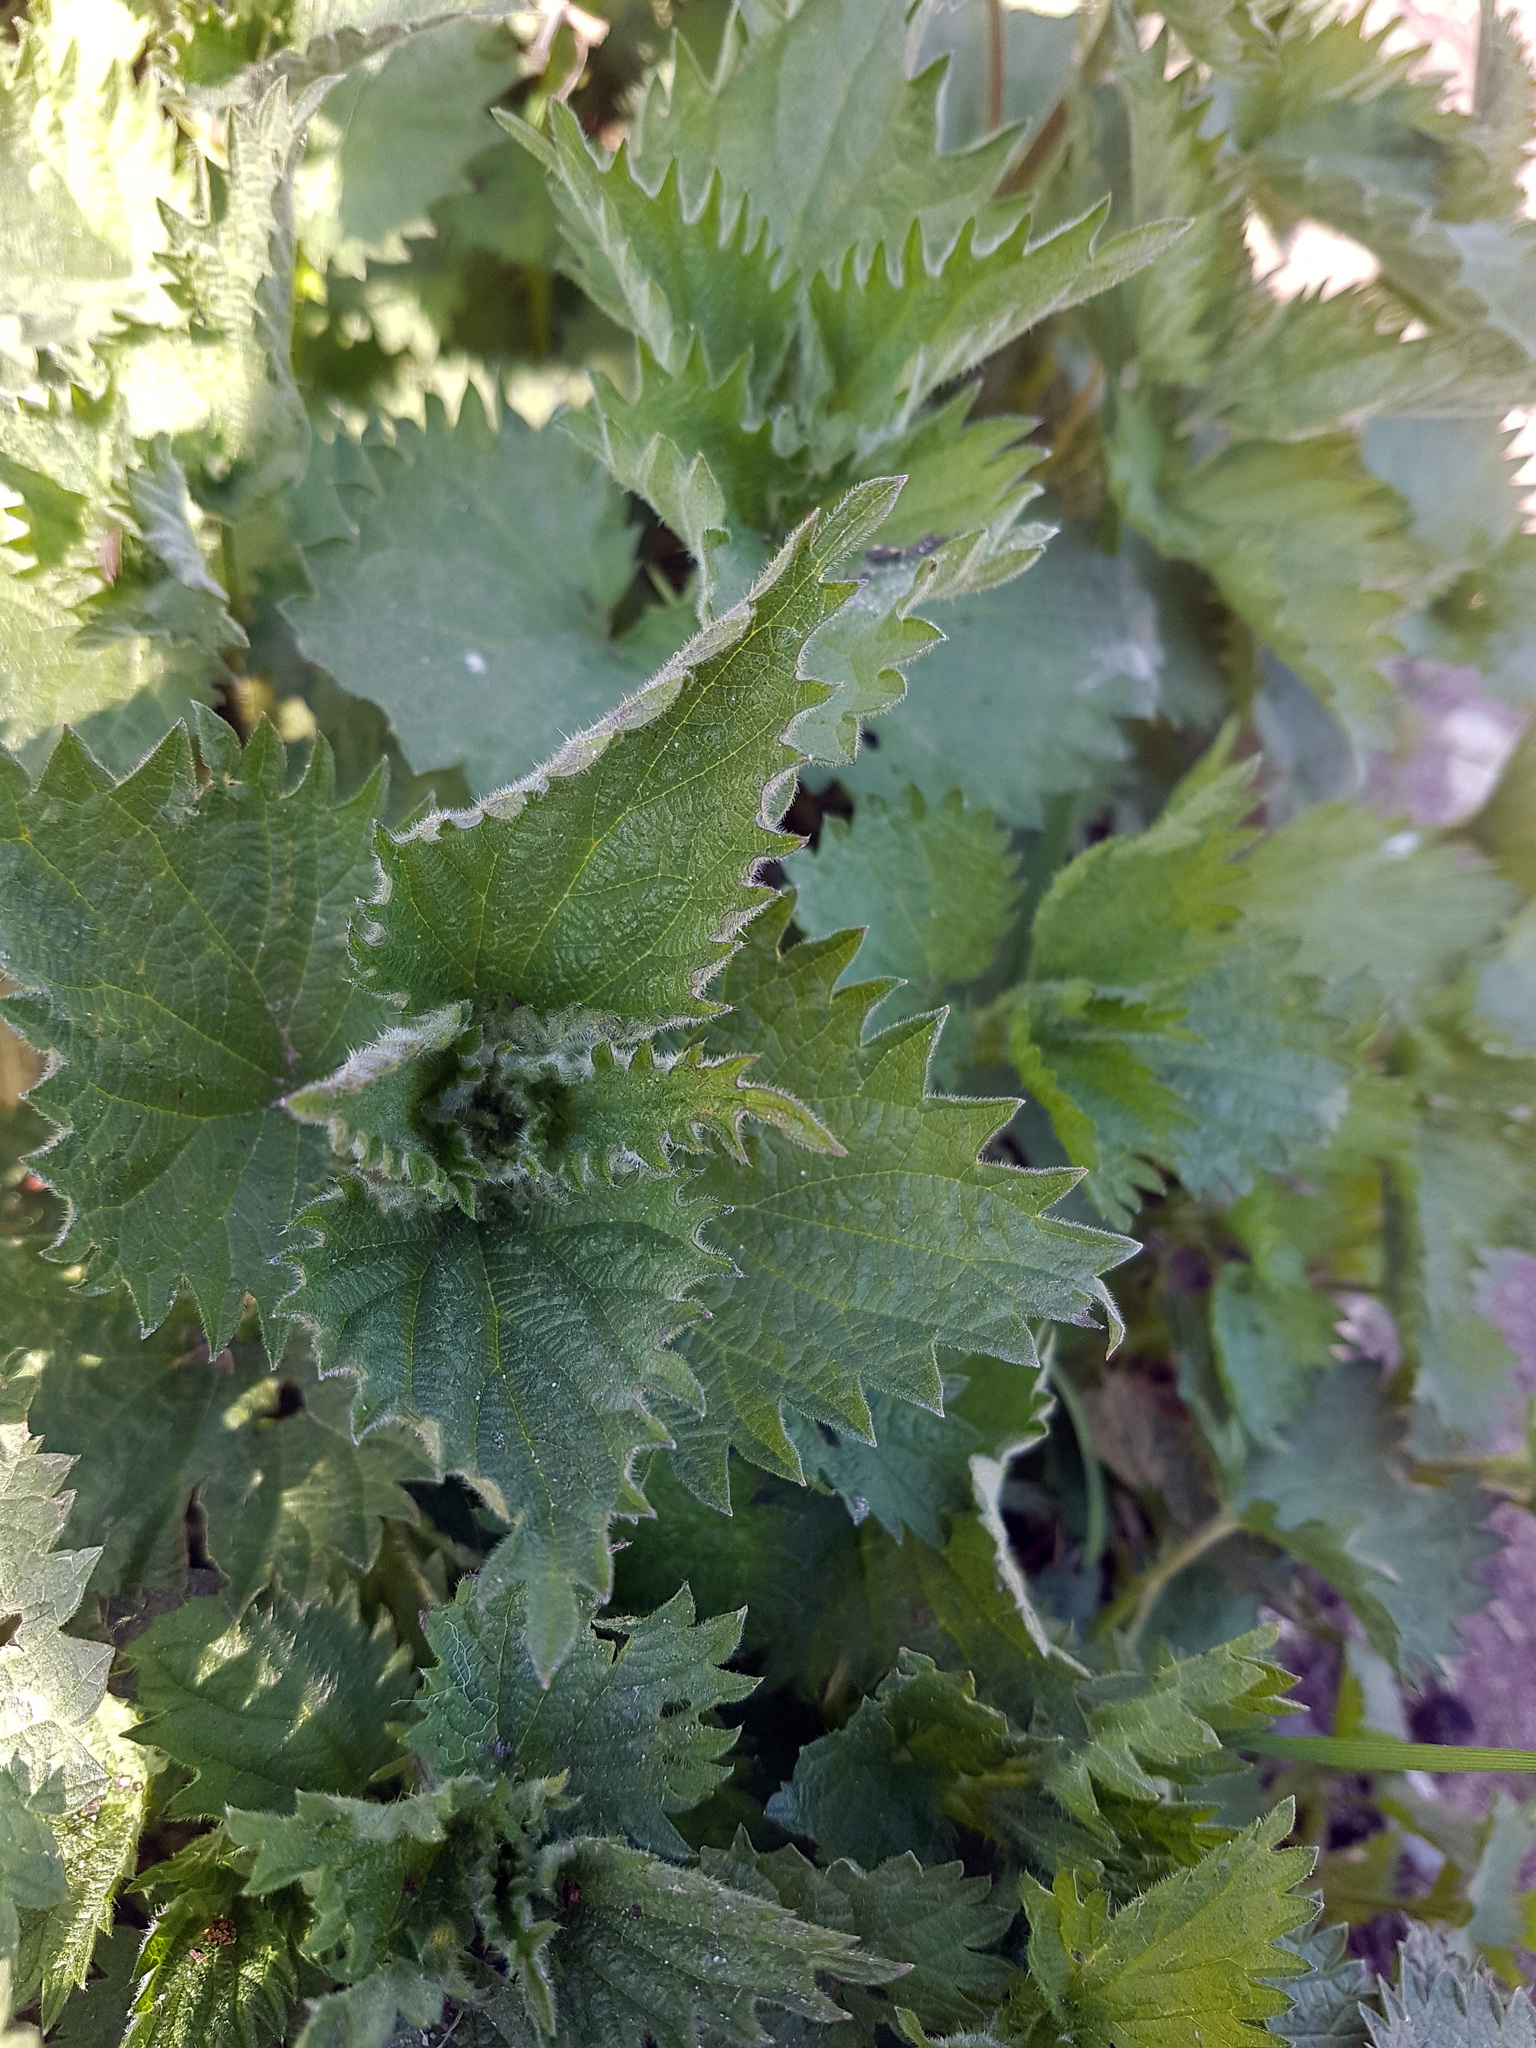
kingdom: Plantae
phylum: Tracheophyta
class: Magnoliopsida
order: Rosales
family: Urticaceae
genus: Urtica
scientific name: Urtica dioica
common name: Common nettle
